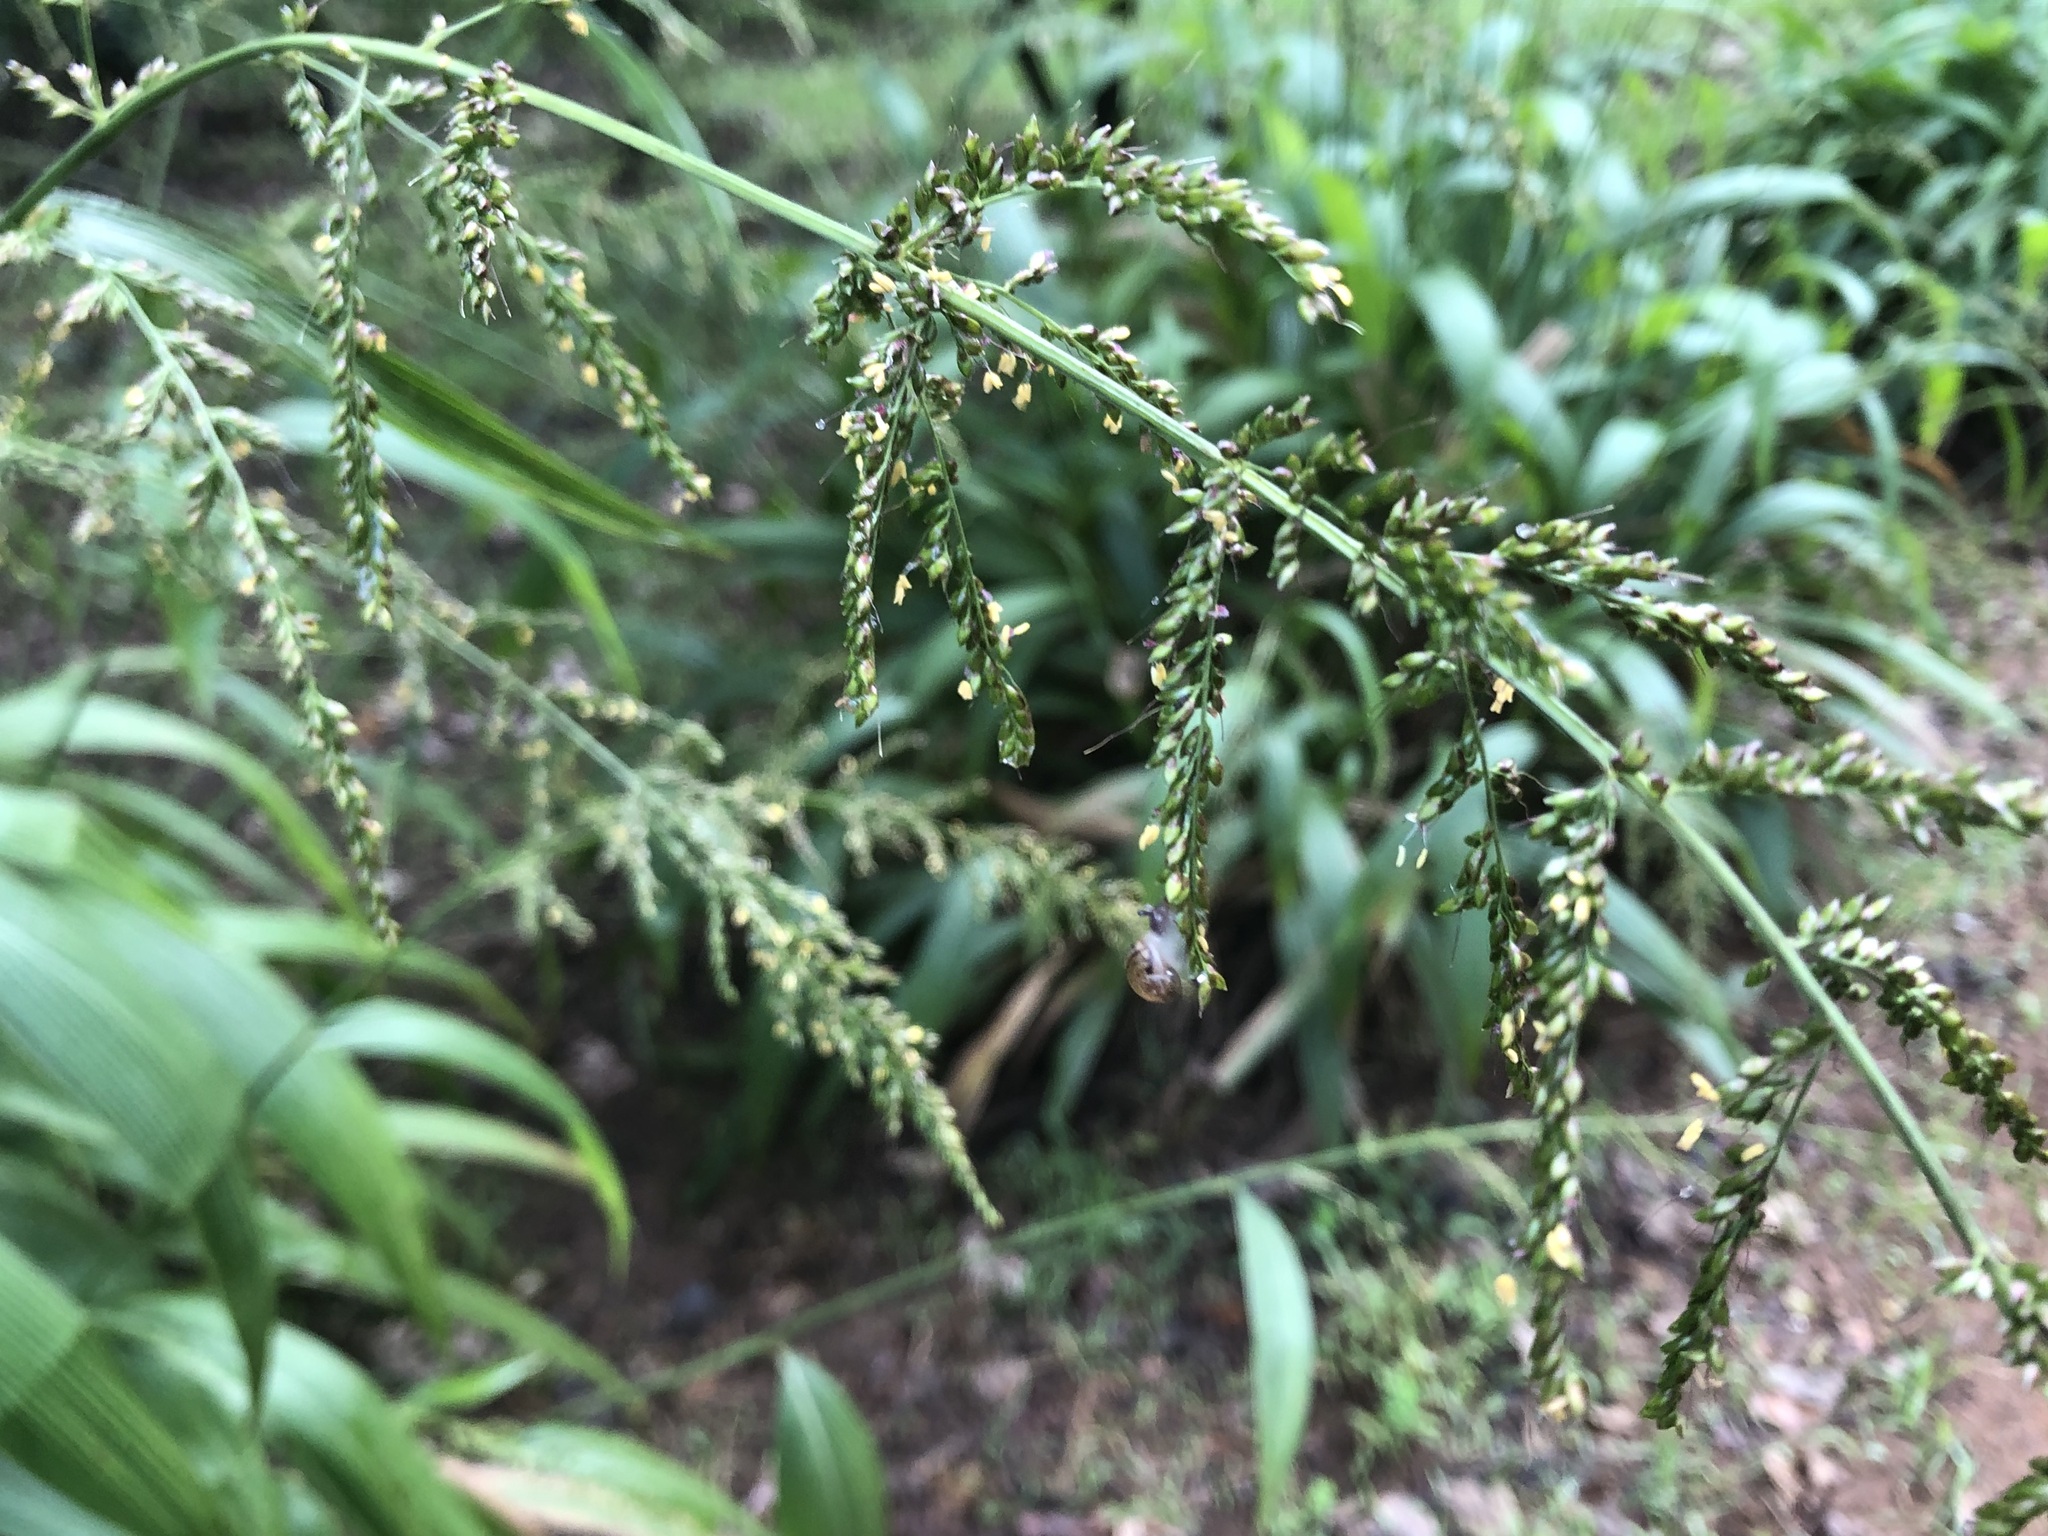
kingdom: Plantae
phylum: Tracheophyta
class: Liliopsida
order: Poales
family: Poaceae
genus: Setaria
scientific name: Setaria megaphylla
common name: Bigleaf bristlegrass
